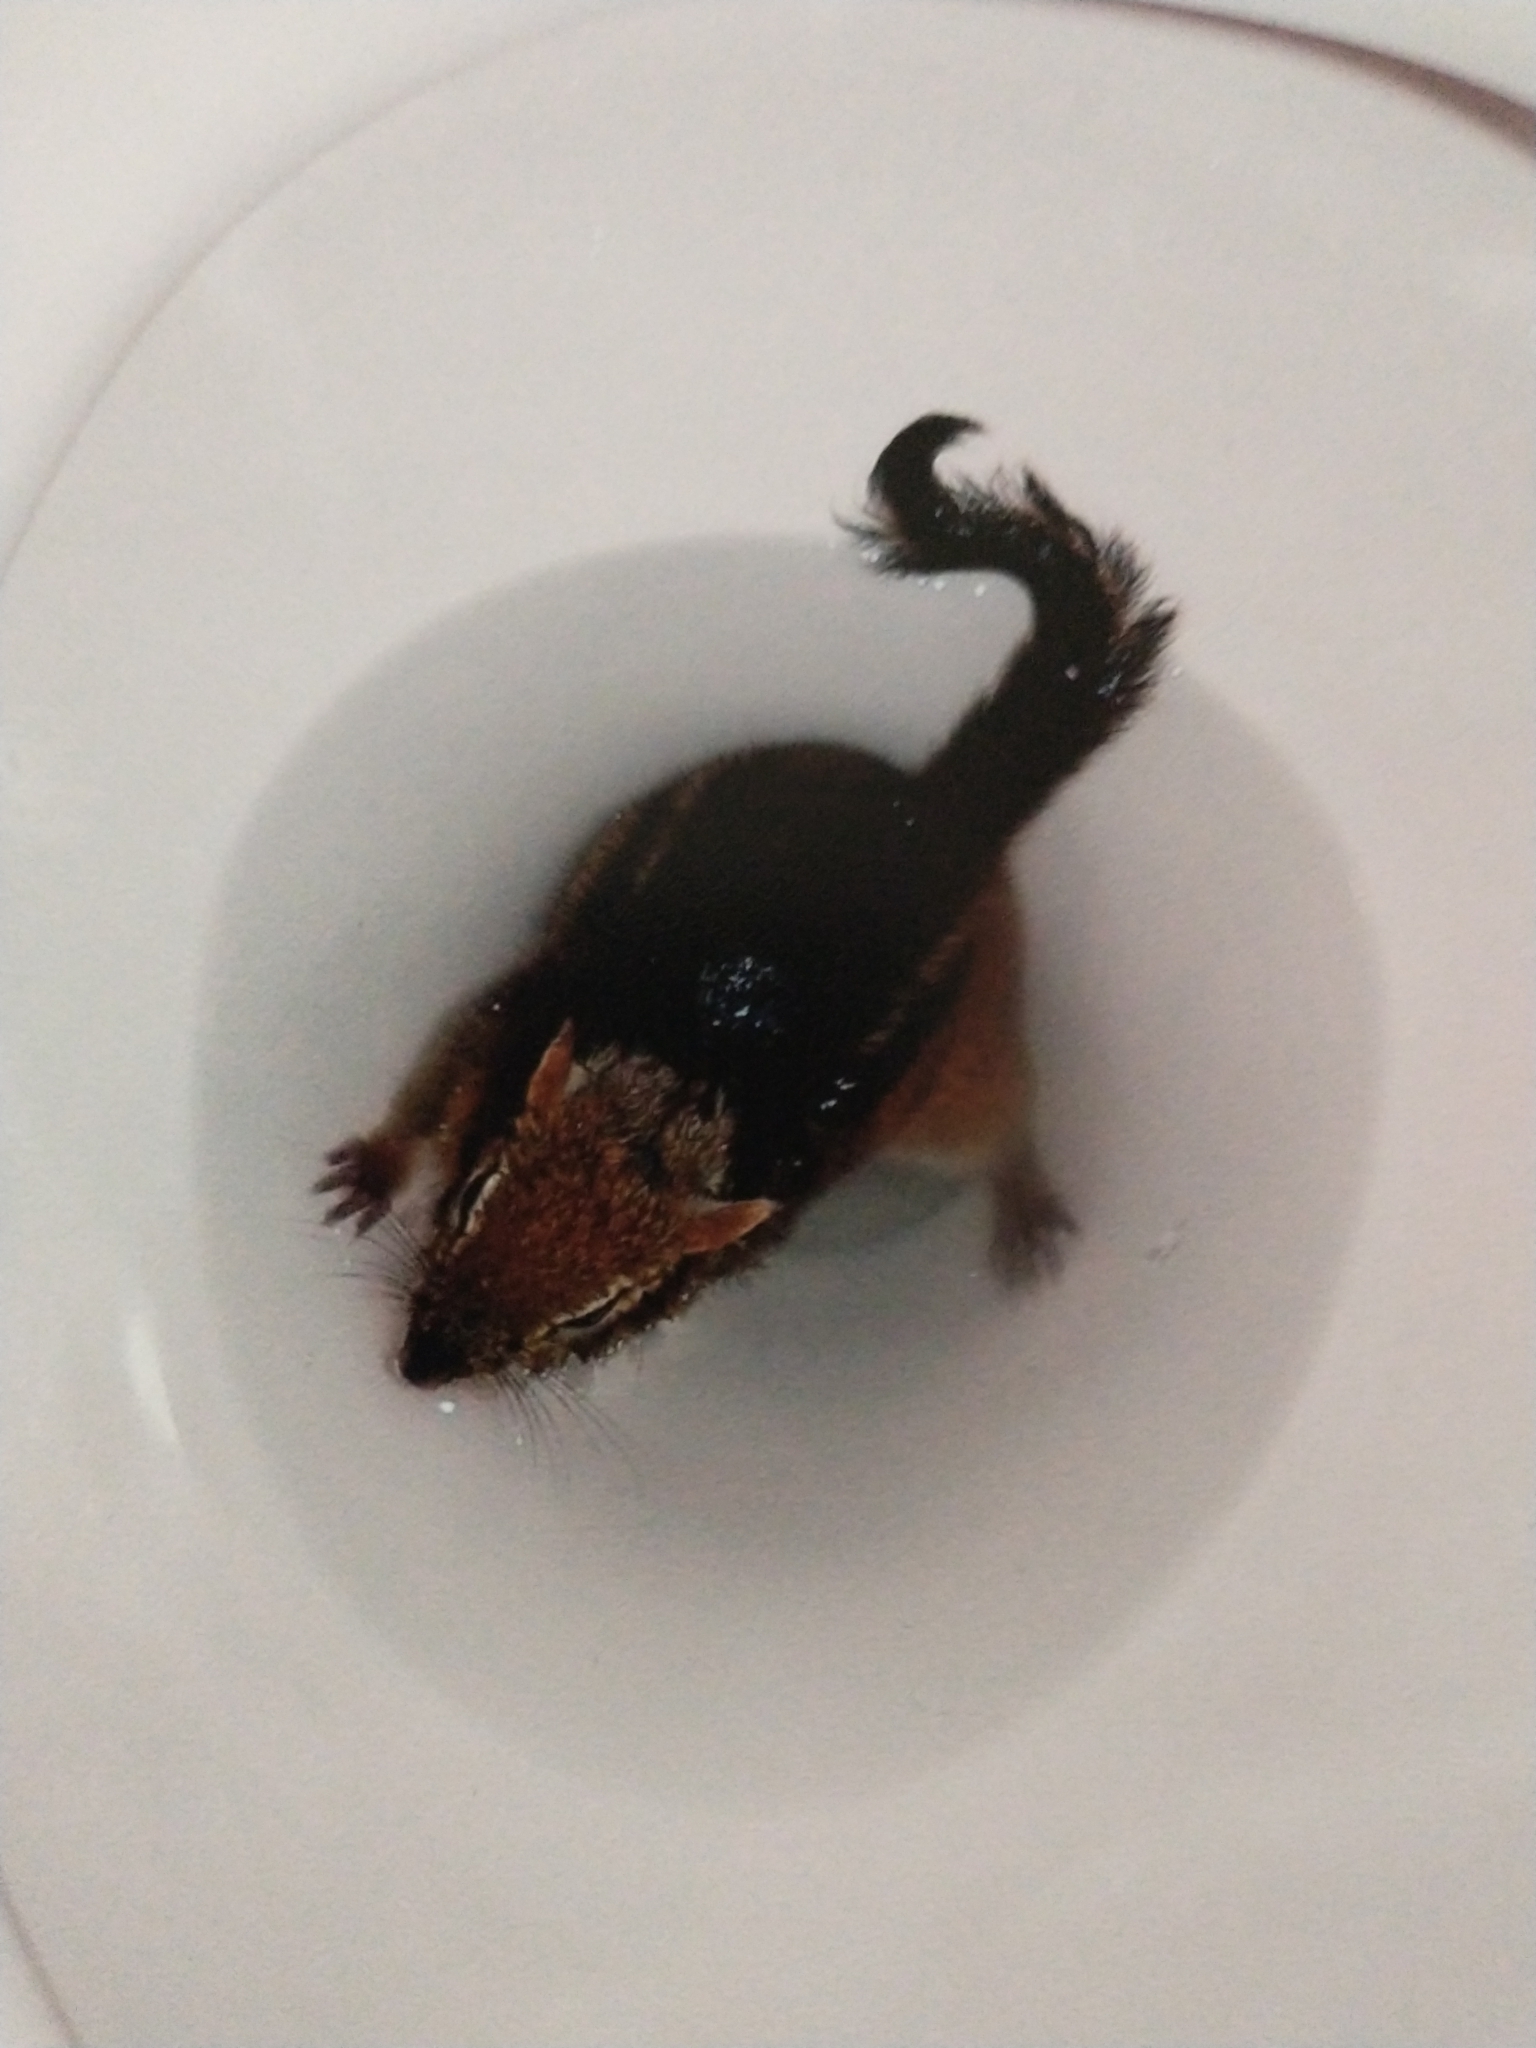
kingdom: Animalia
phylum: Chordata
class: Mammalia
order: Rodentia
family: Sciuridae
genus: Tamias
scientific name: Tamias striatus
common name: Eastern chipmunk
